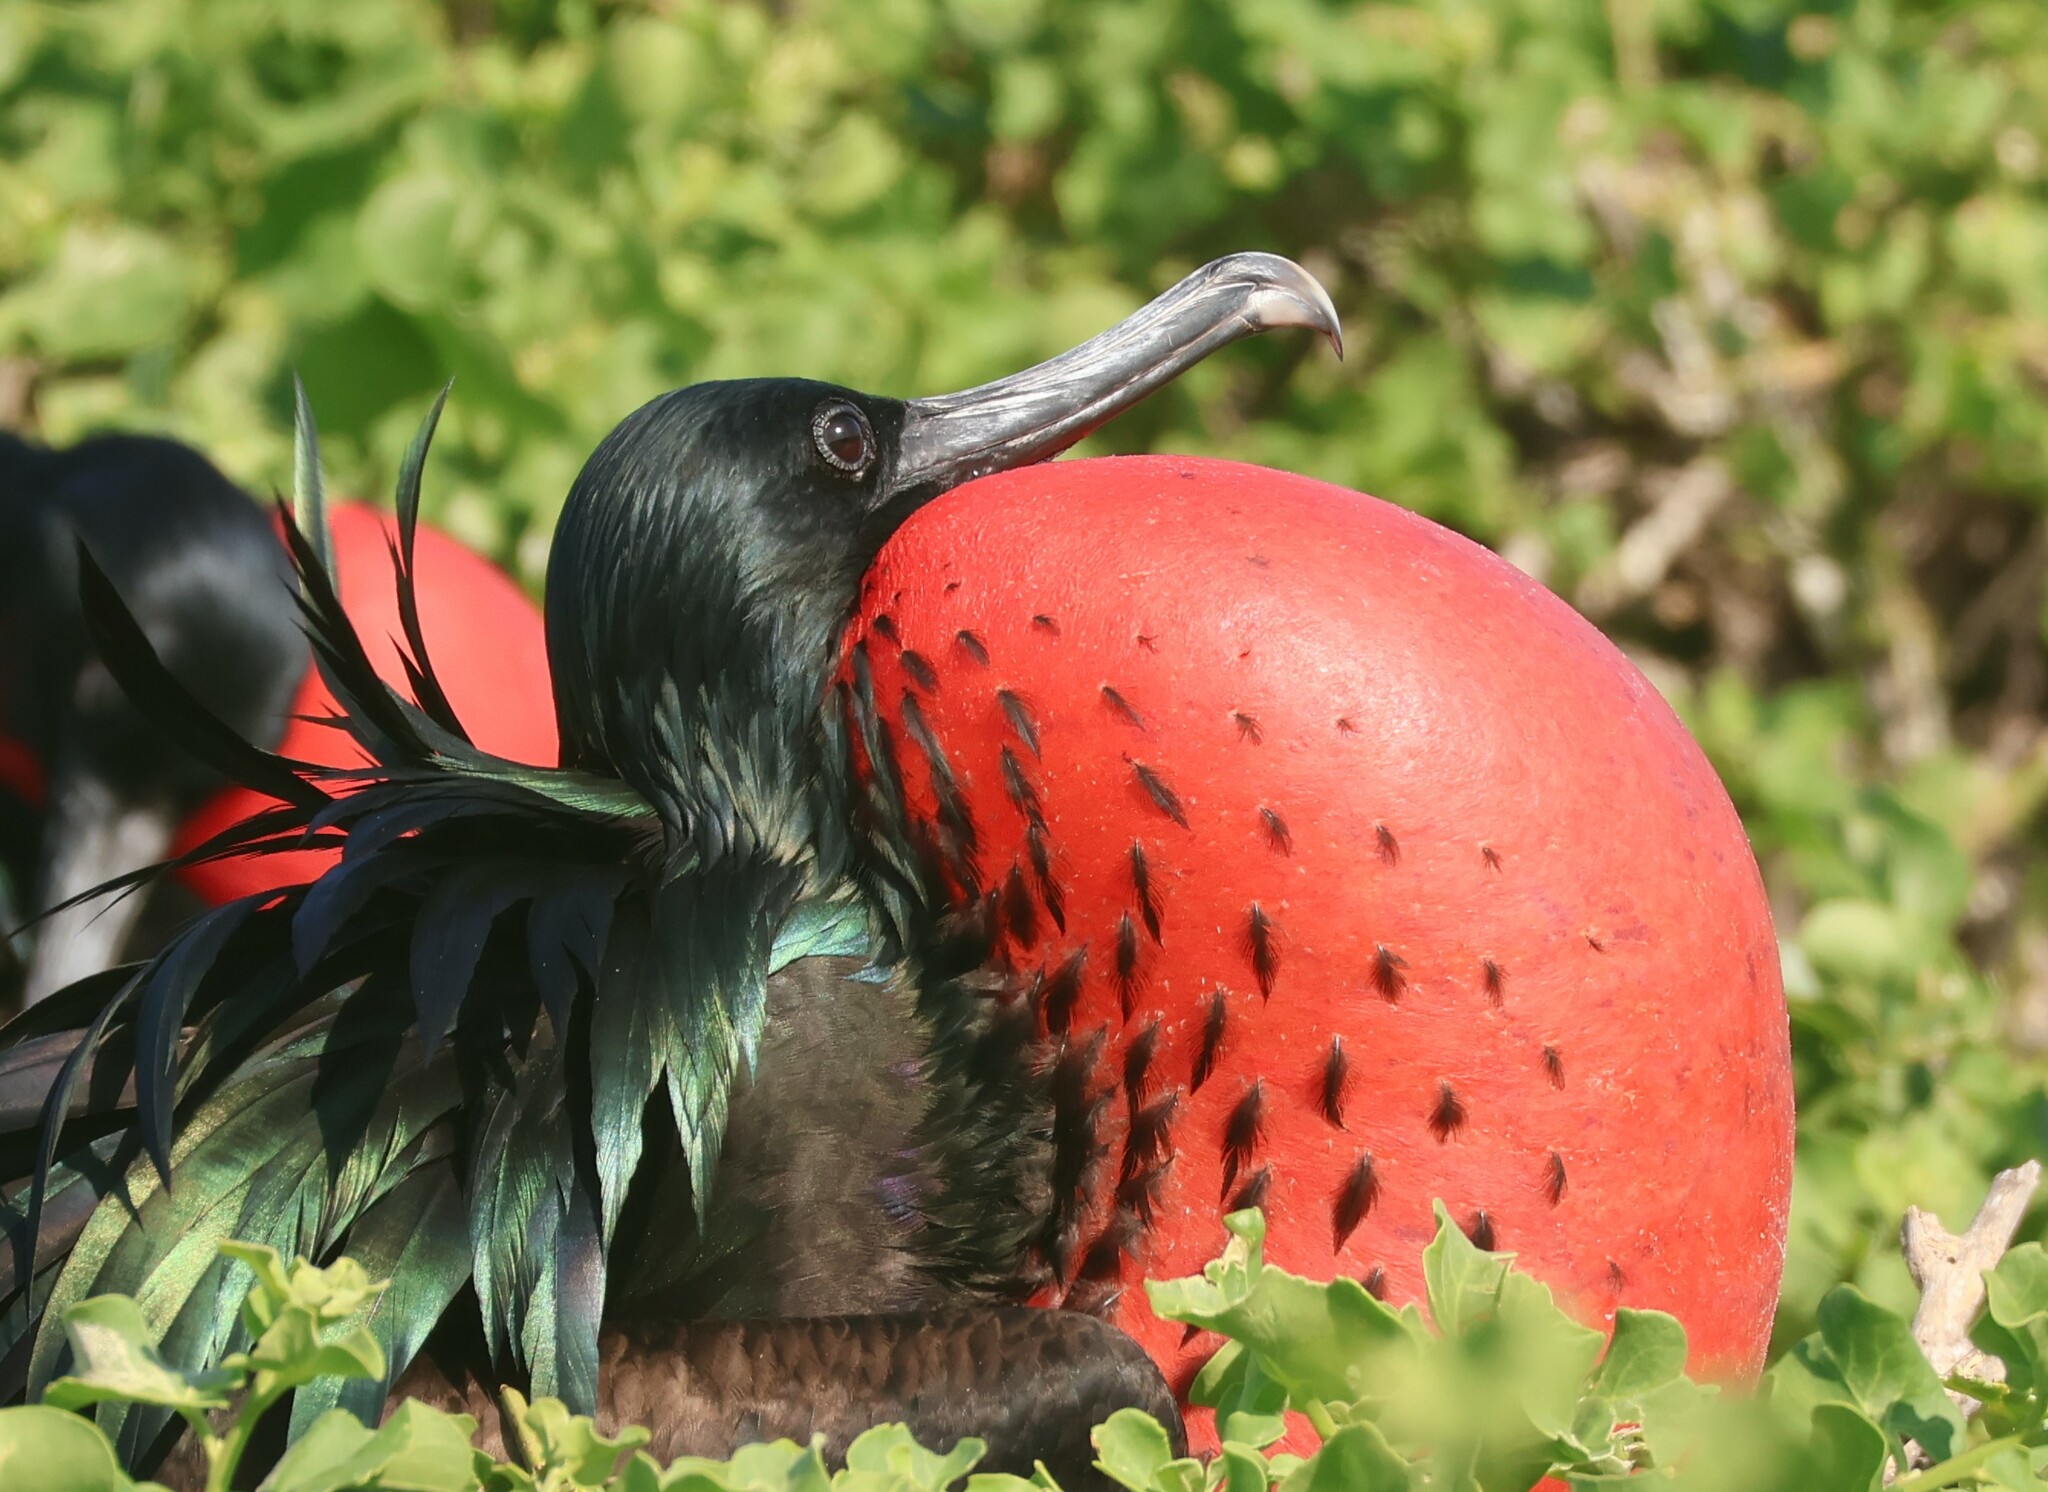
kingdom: Animalia
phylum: Chordata
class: Aves
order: Suliformes
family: Fregatidae
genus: Fregata
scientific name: Fregata minor
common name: Great frigatebird
